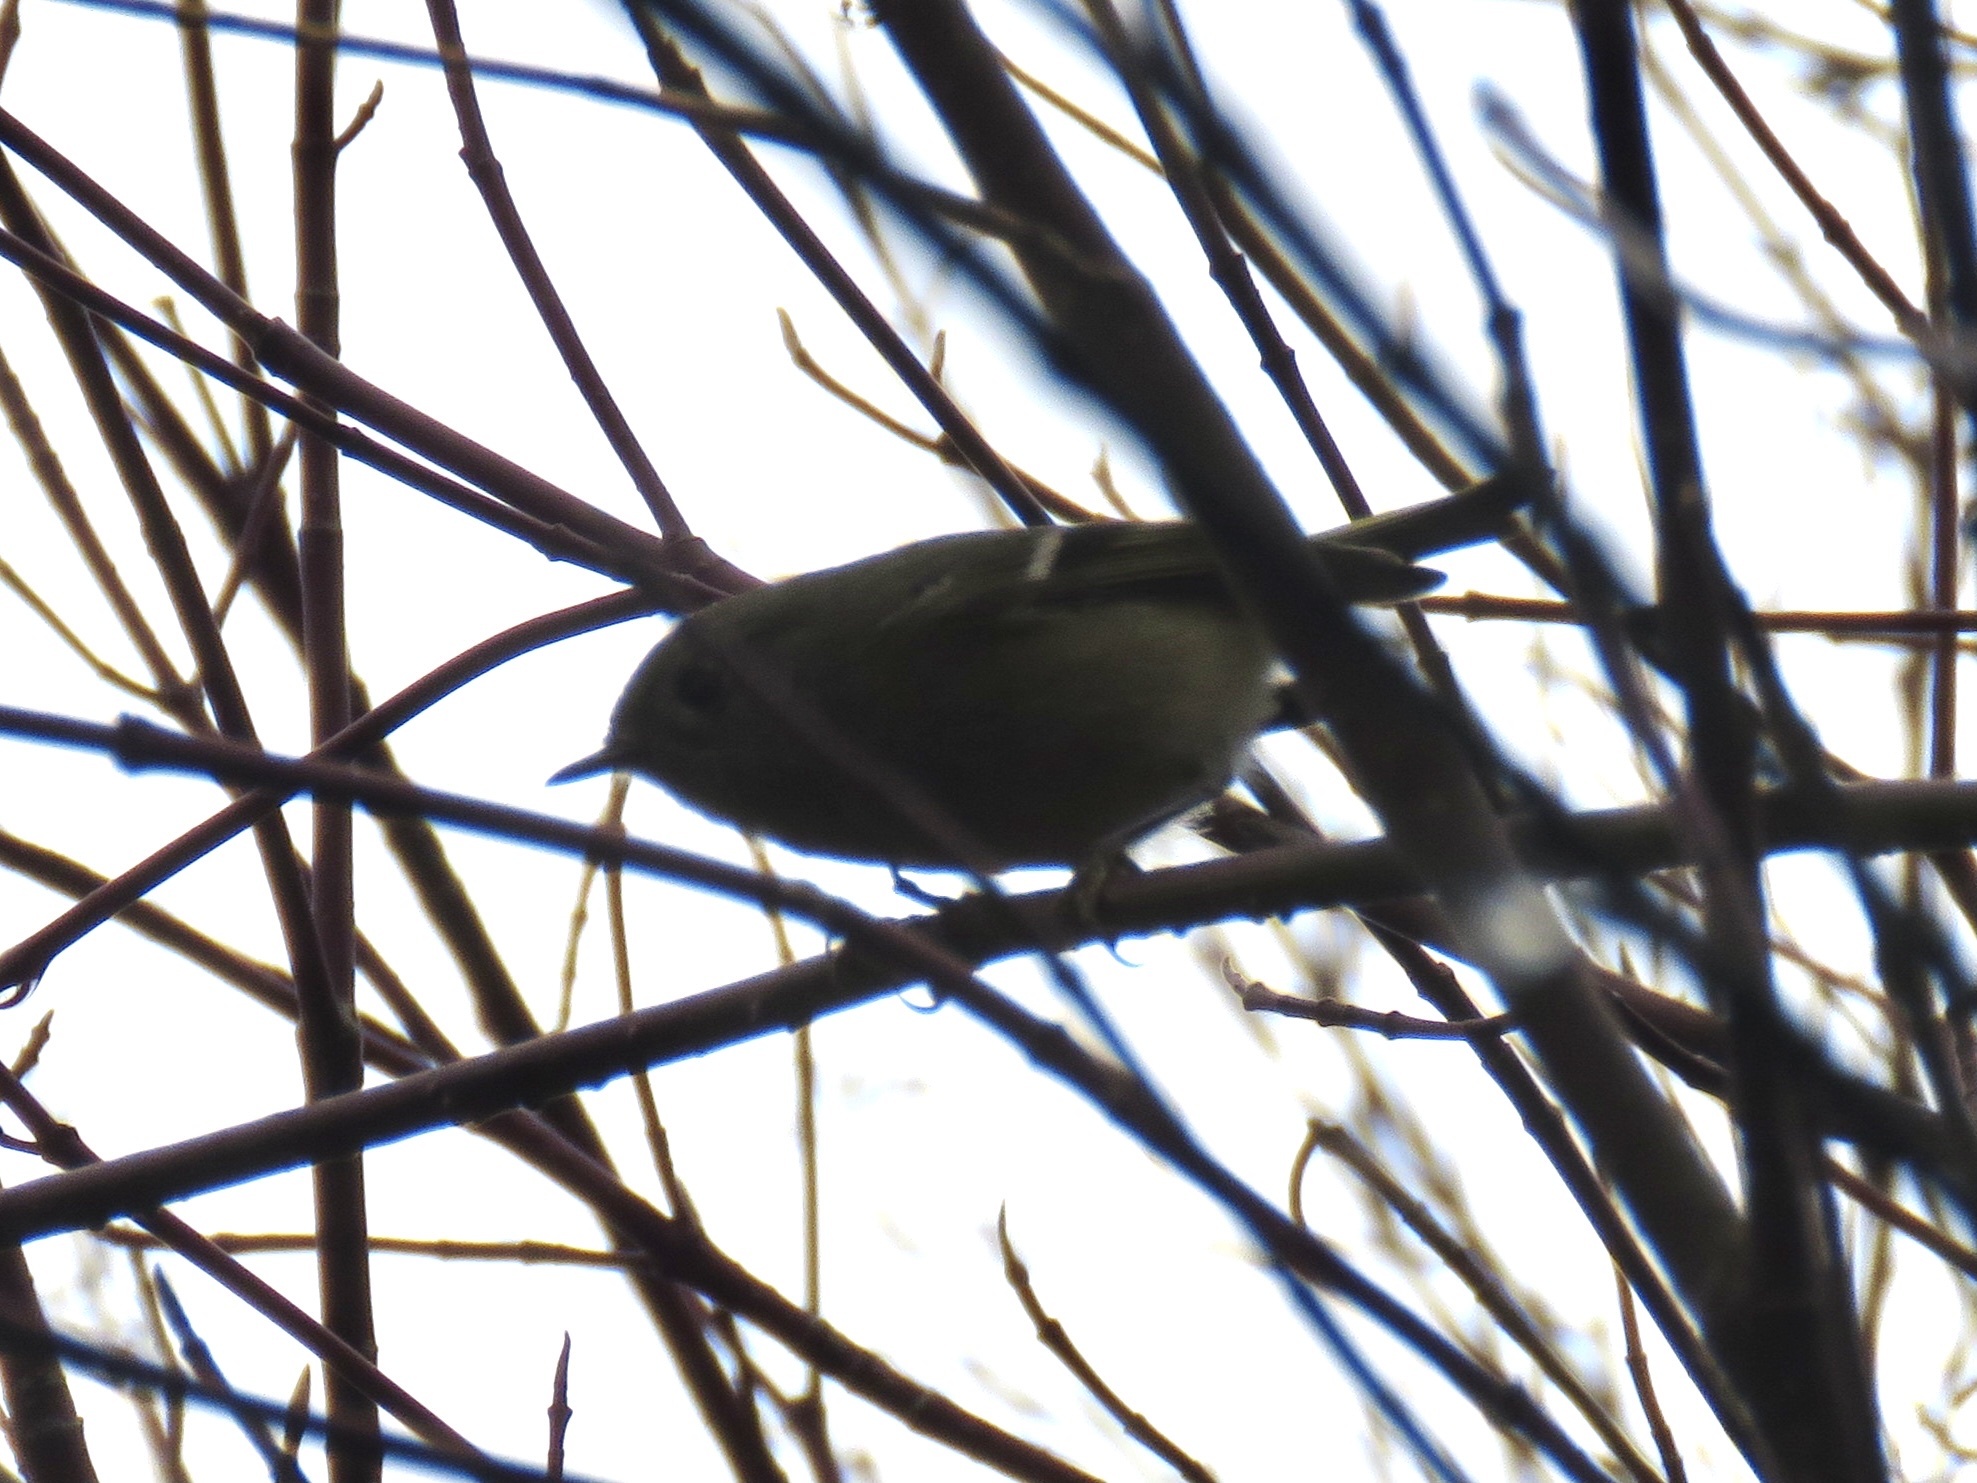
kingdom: Animalia
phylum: Chordata
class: Aves
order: Passeriformes
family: Regulidae
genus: Regulus
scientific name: Regulus calendula
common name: Ruby-crowned kinglet
